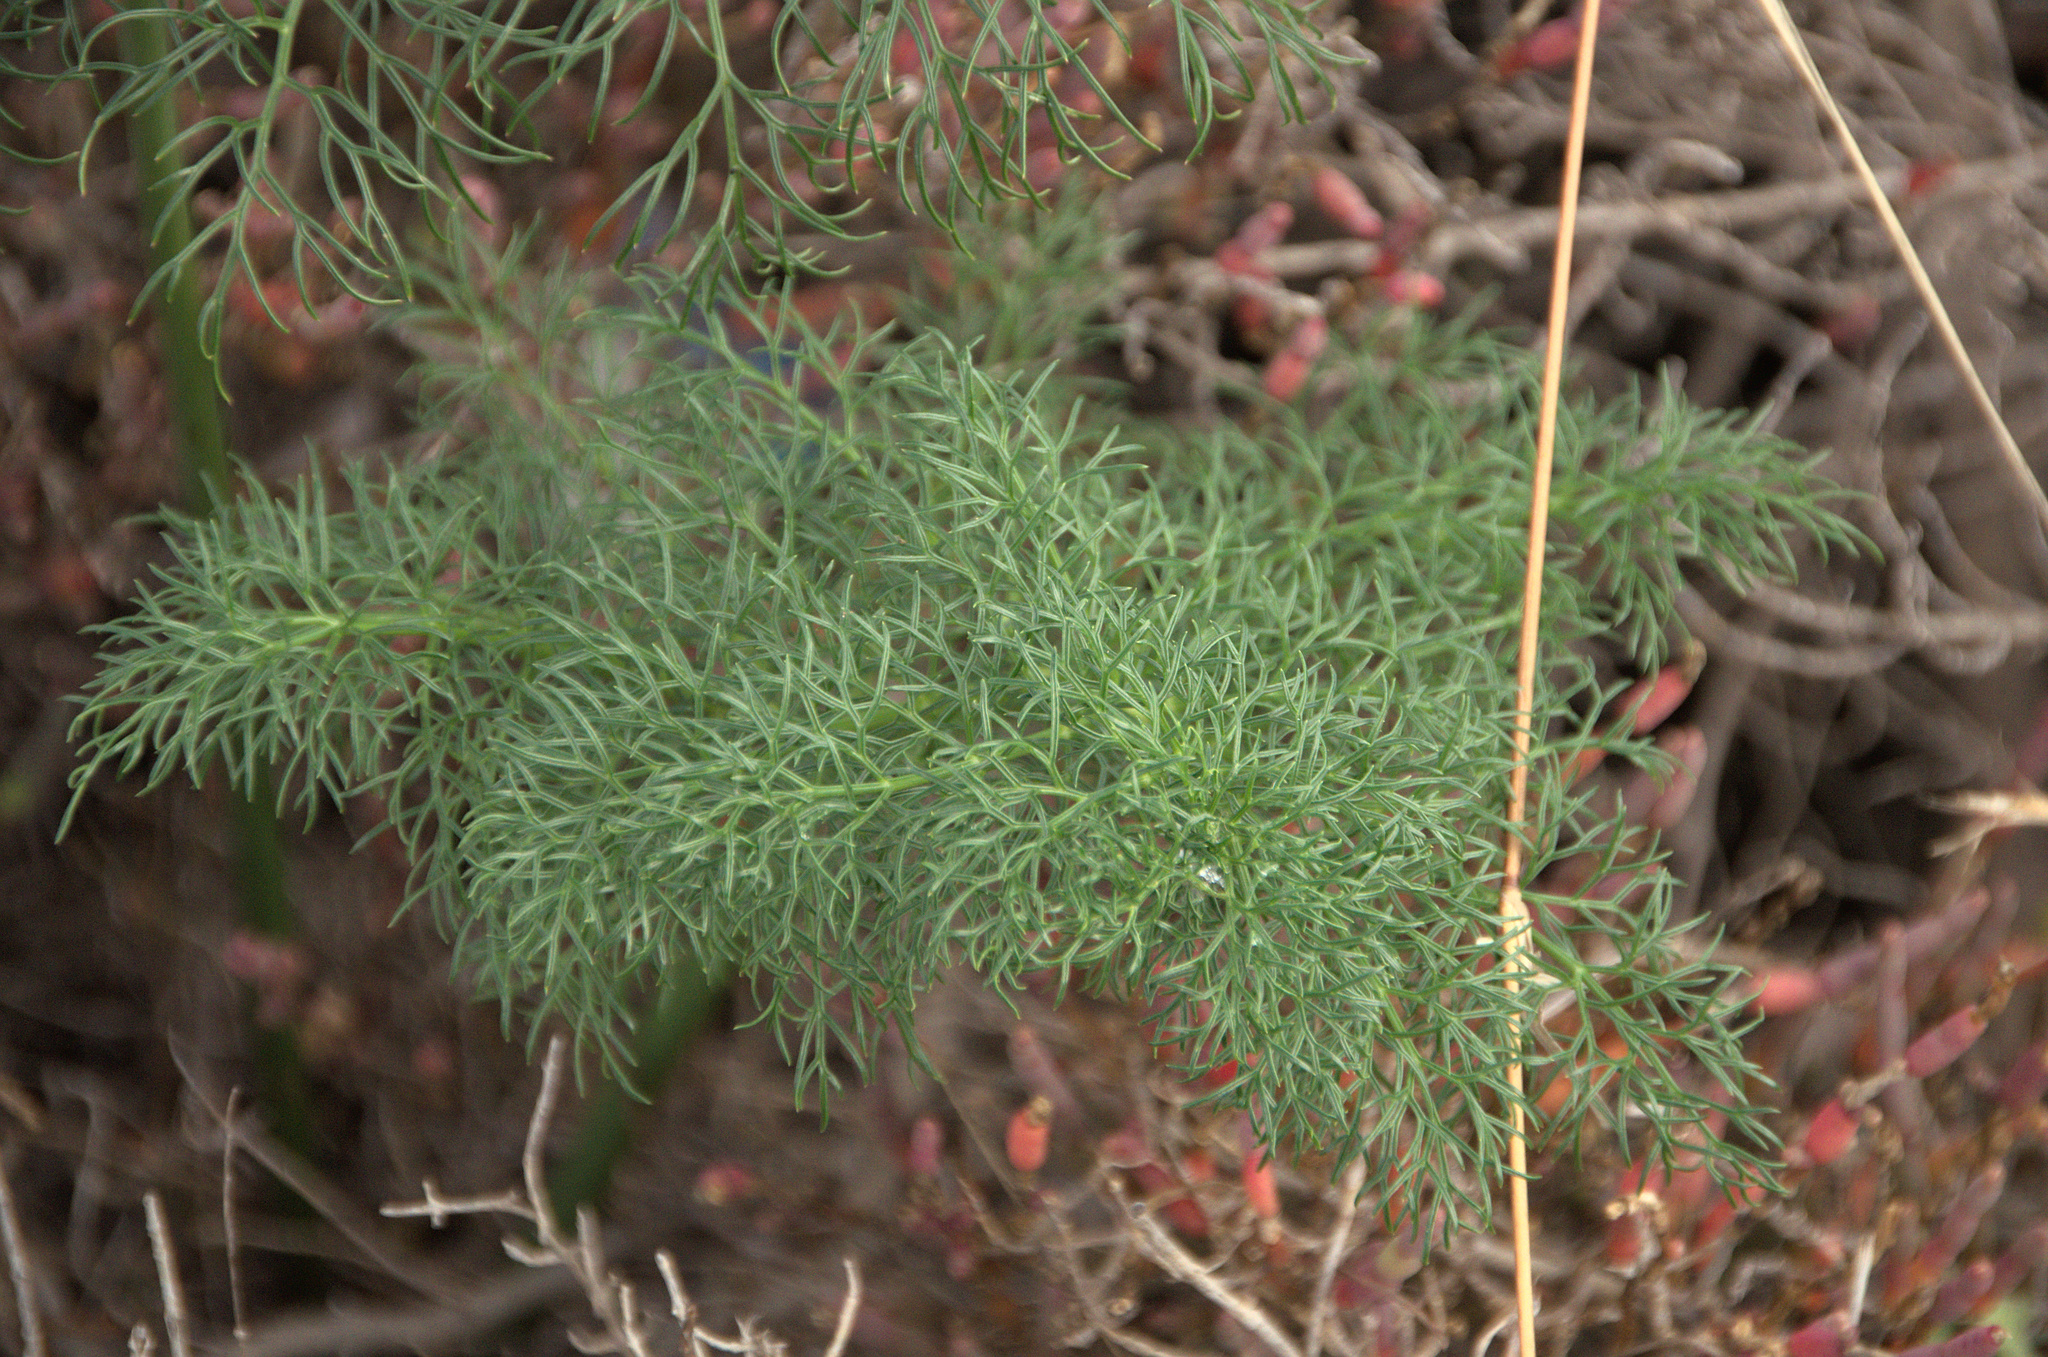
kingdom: Plantae
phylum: Tracheophyta
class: Magnoliopsida
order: Apiales
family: Apiaceae
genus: Foeniculum
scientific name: Foeniculum vulgare
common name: Fennel
